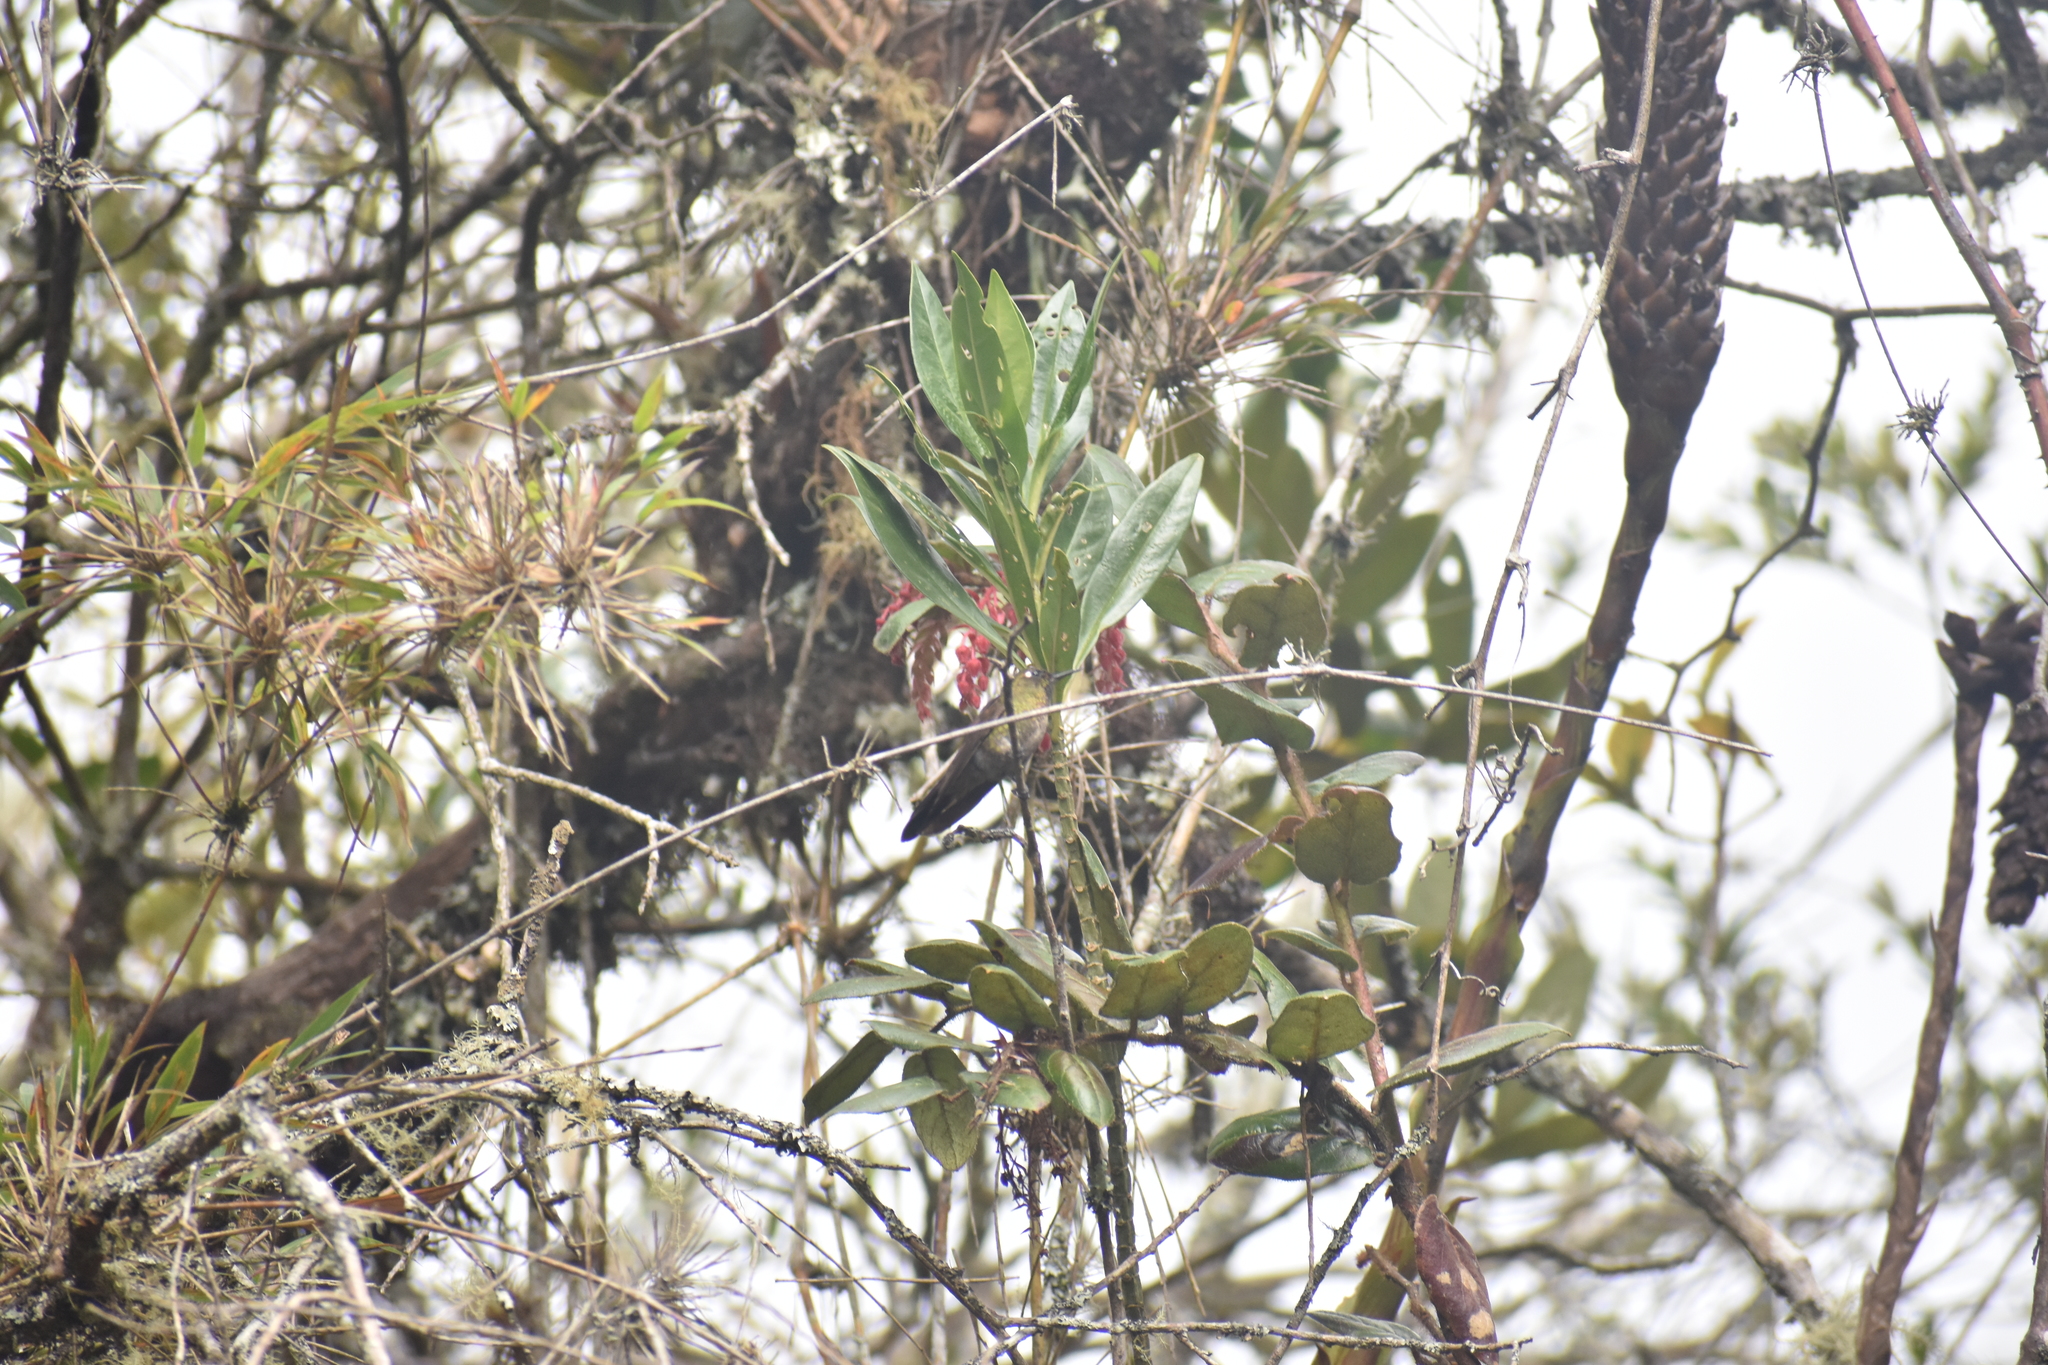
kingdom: Animalia
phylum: Chordata
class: Aves
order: Apodiformes
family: Trochilidae
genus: Metallura
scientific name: Metallura tyrianthina
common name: Tyrian metaltail
